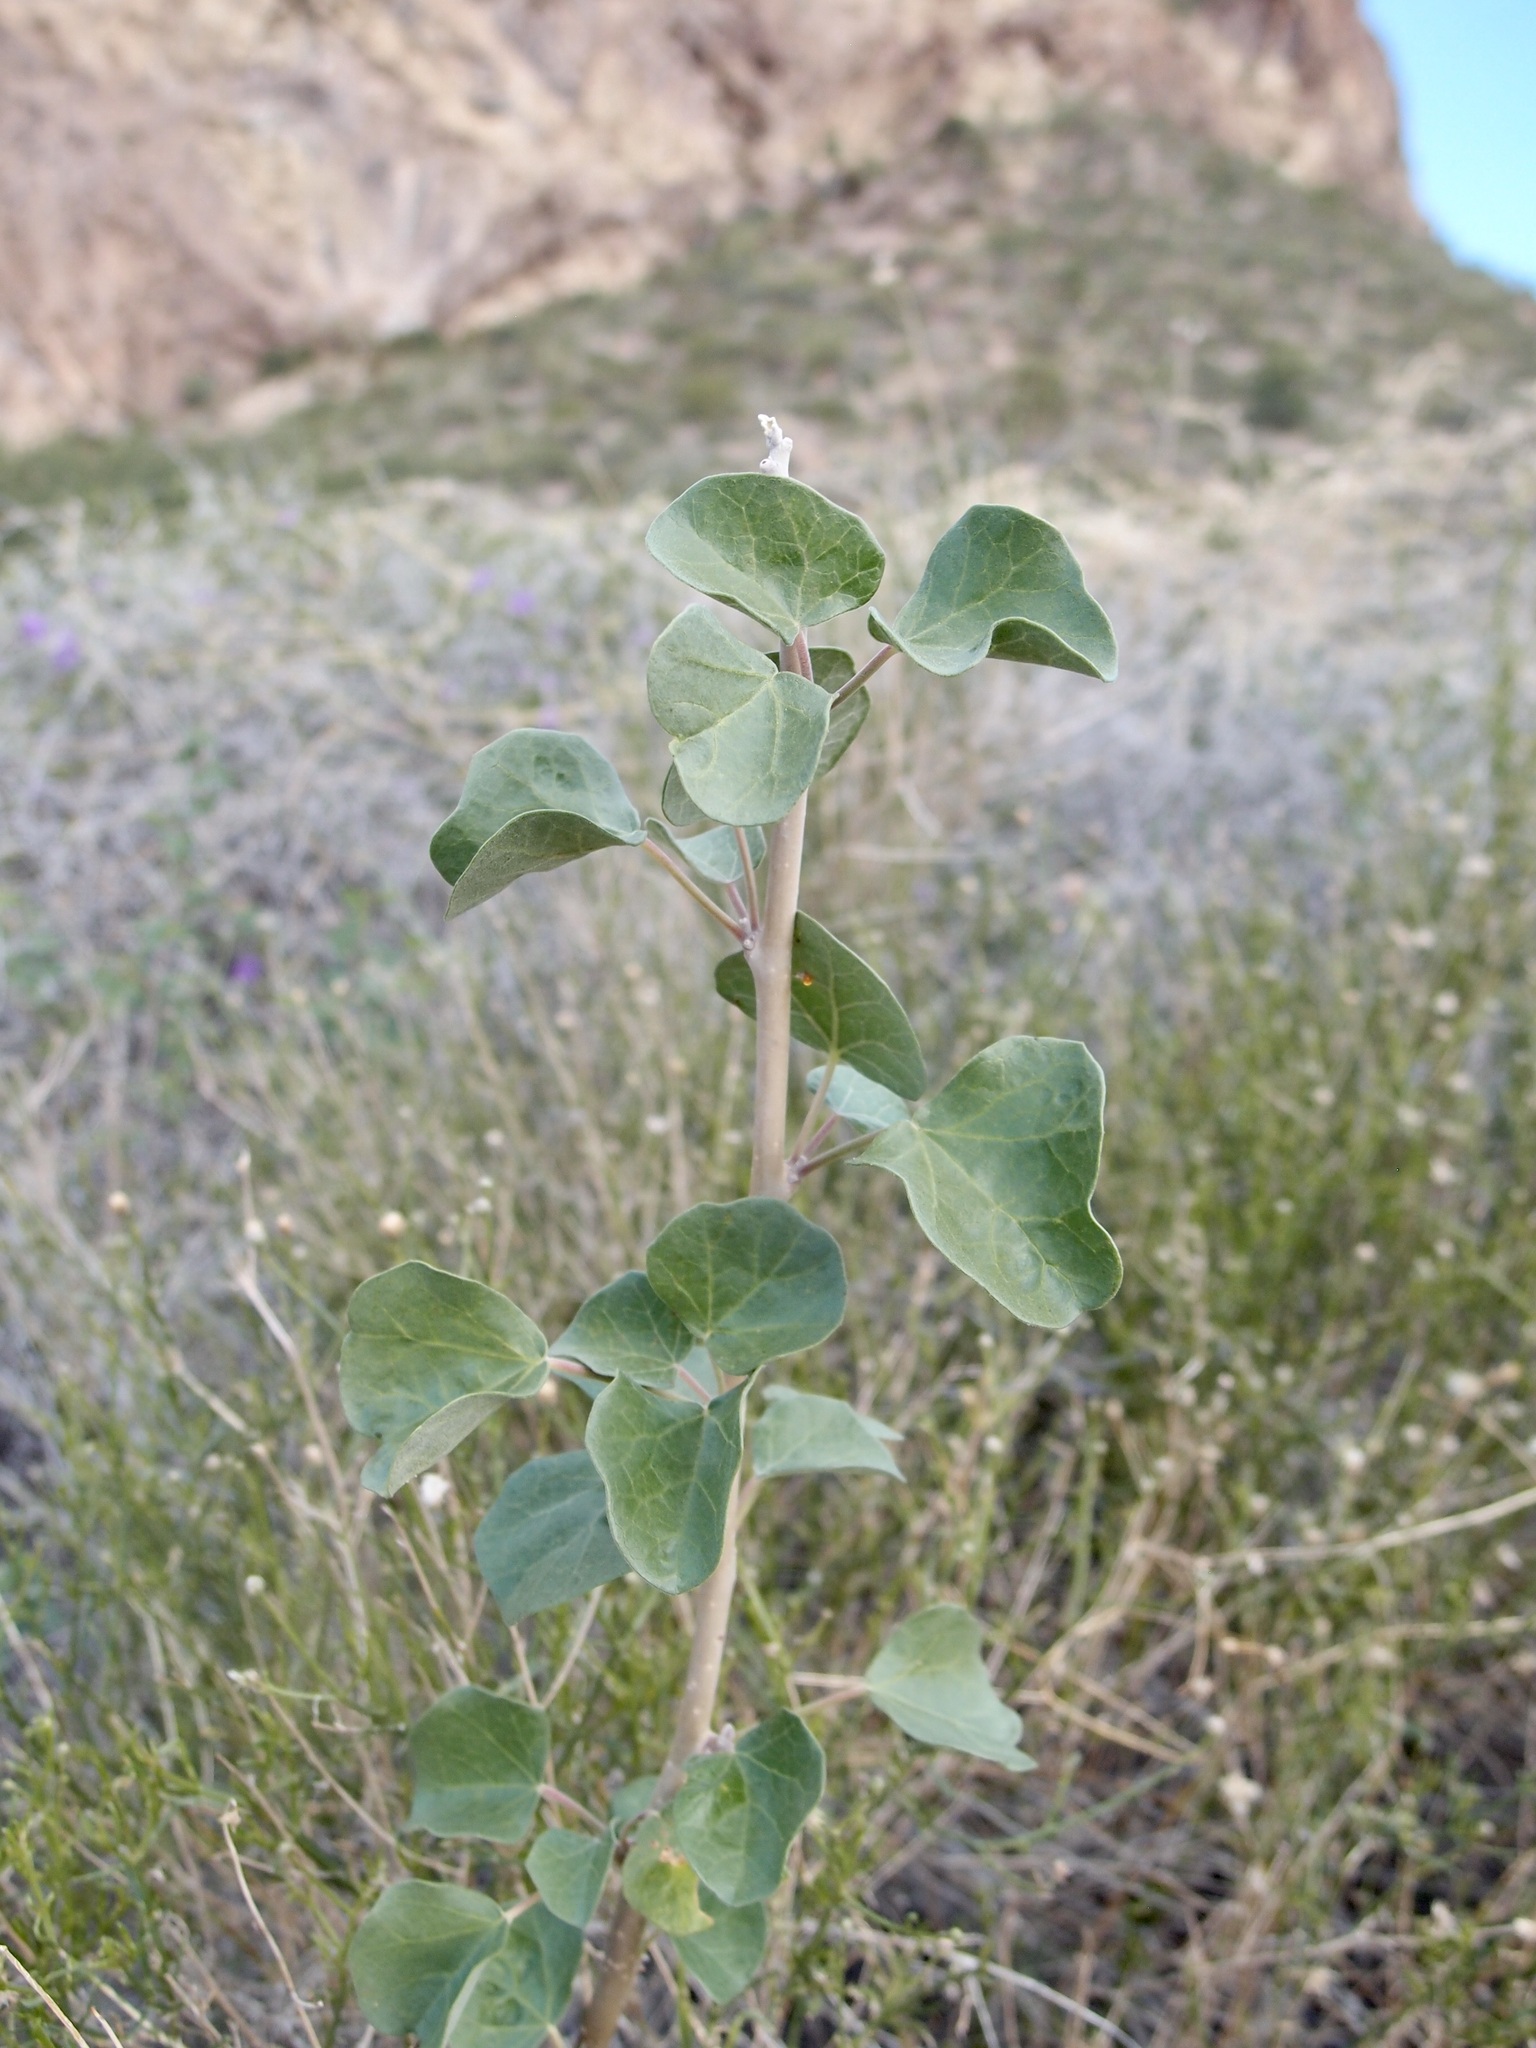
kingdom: Plantae
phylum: Tracheophyta
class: Magnoliopsida
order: Malpighiales
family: Euphorbiaceae
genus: Jatropha
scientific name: Jatropha cinerea
